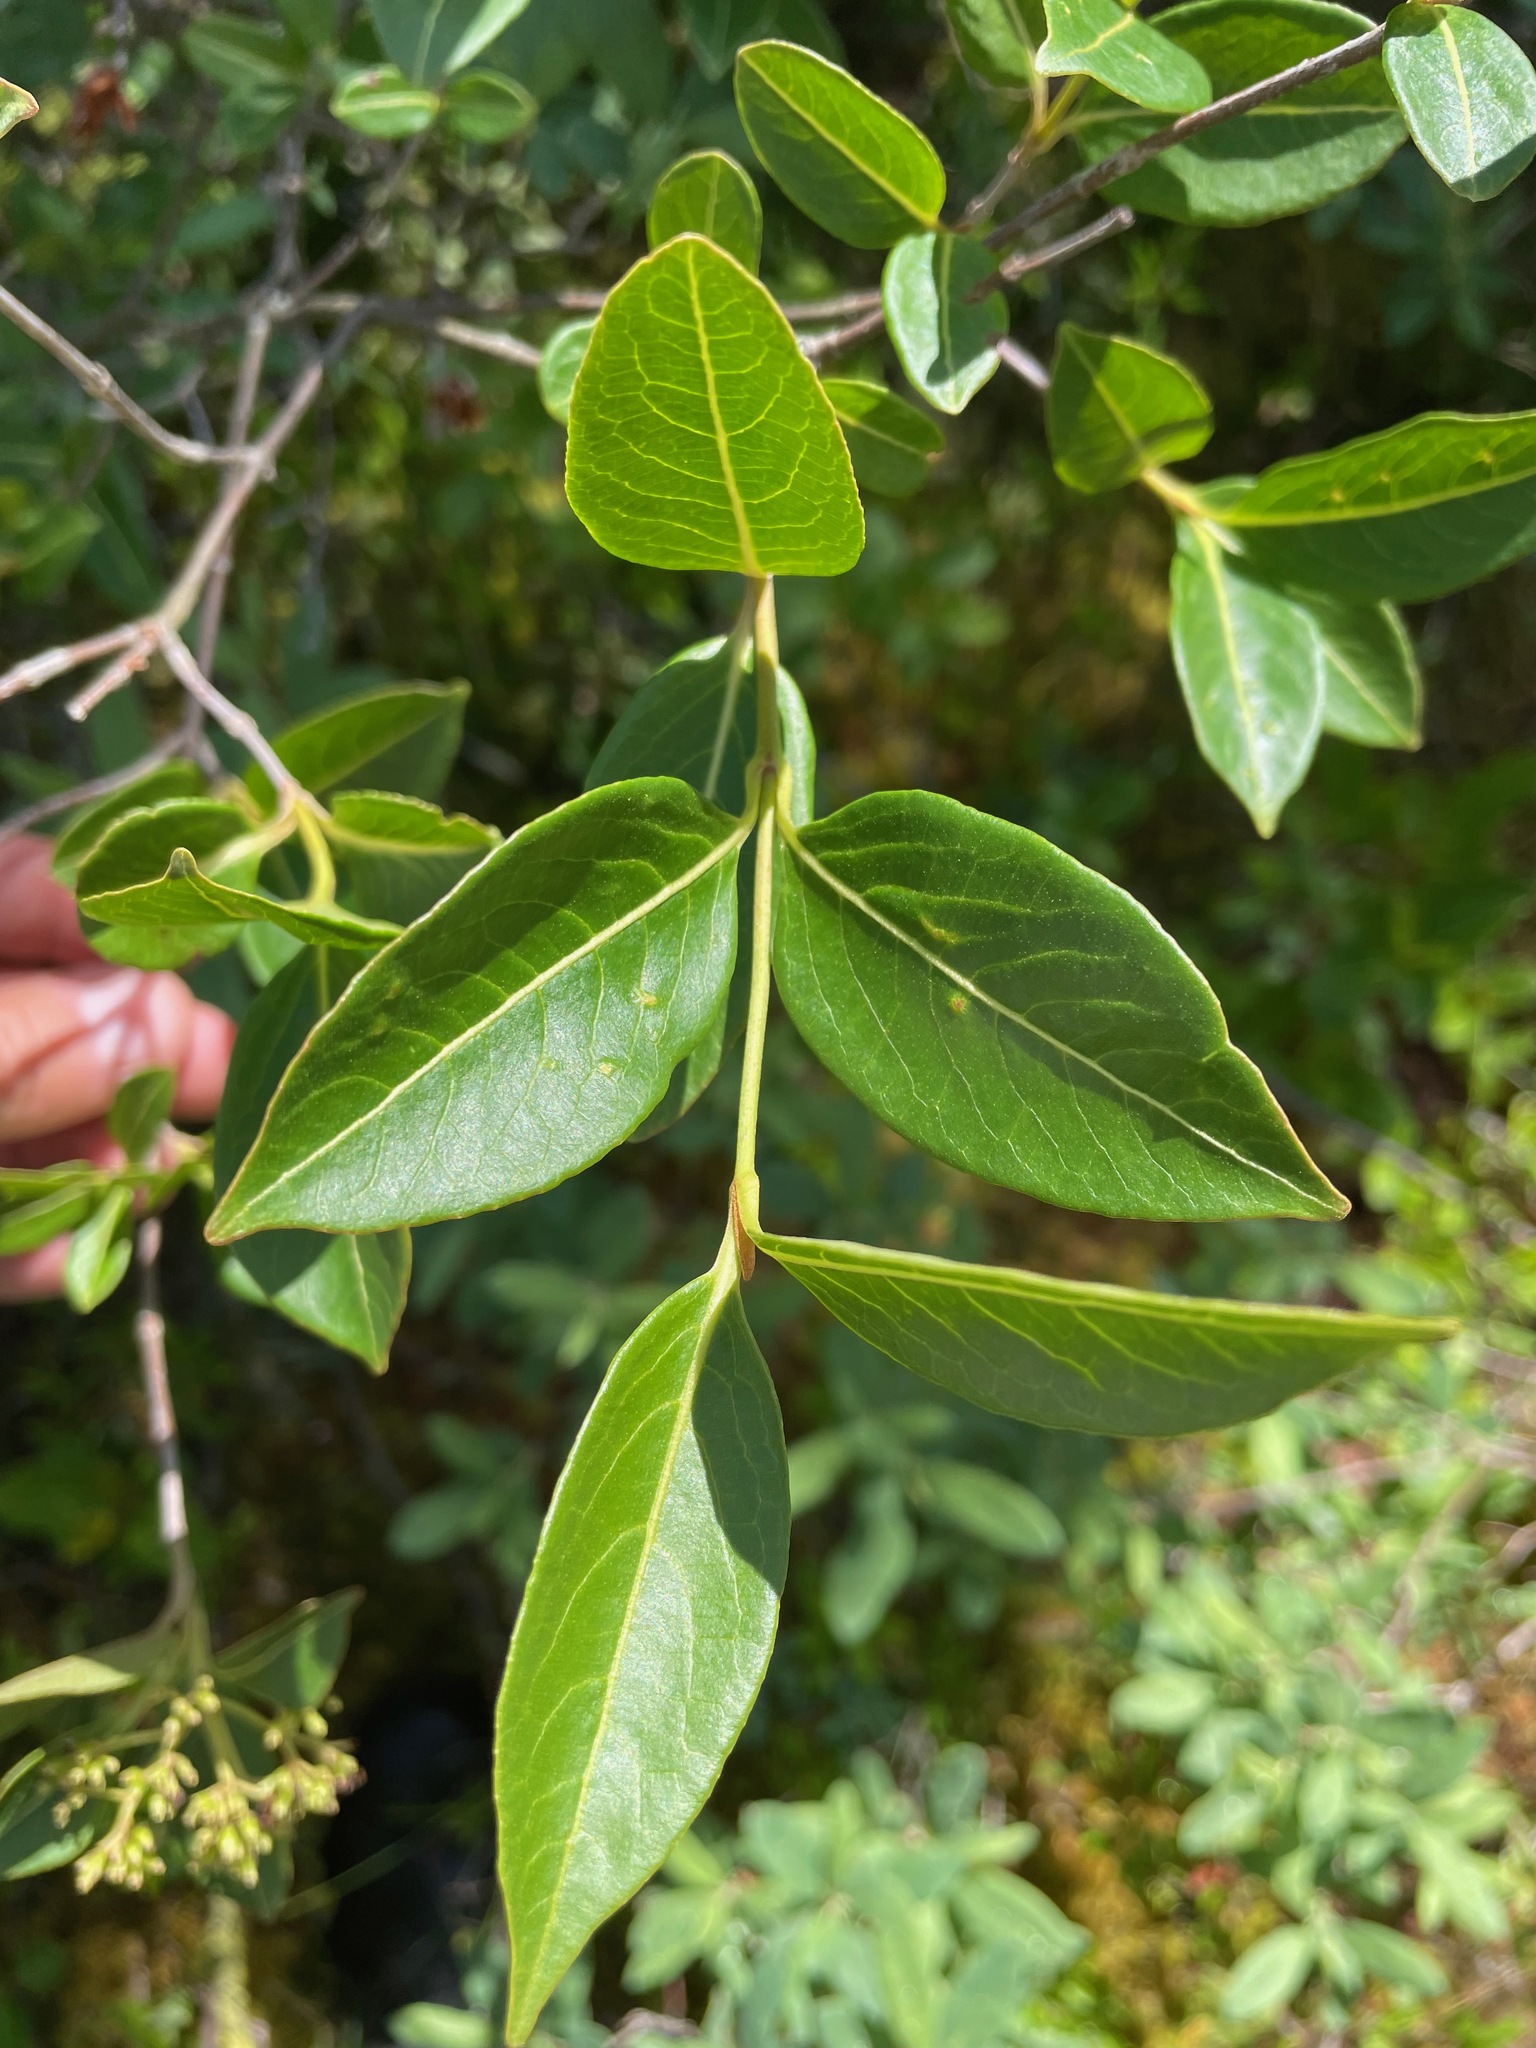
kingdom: Plantae
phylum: Tracheophyta
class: Magnoliopsida
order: Dipsacales
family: Viburnaceae
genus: Viburnum
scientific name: Viburnum cassinoides
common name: Swamp haw
